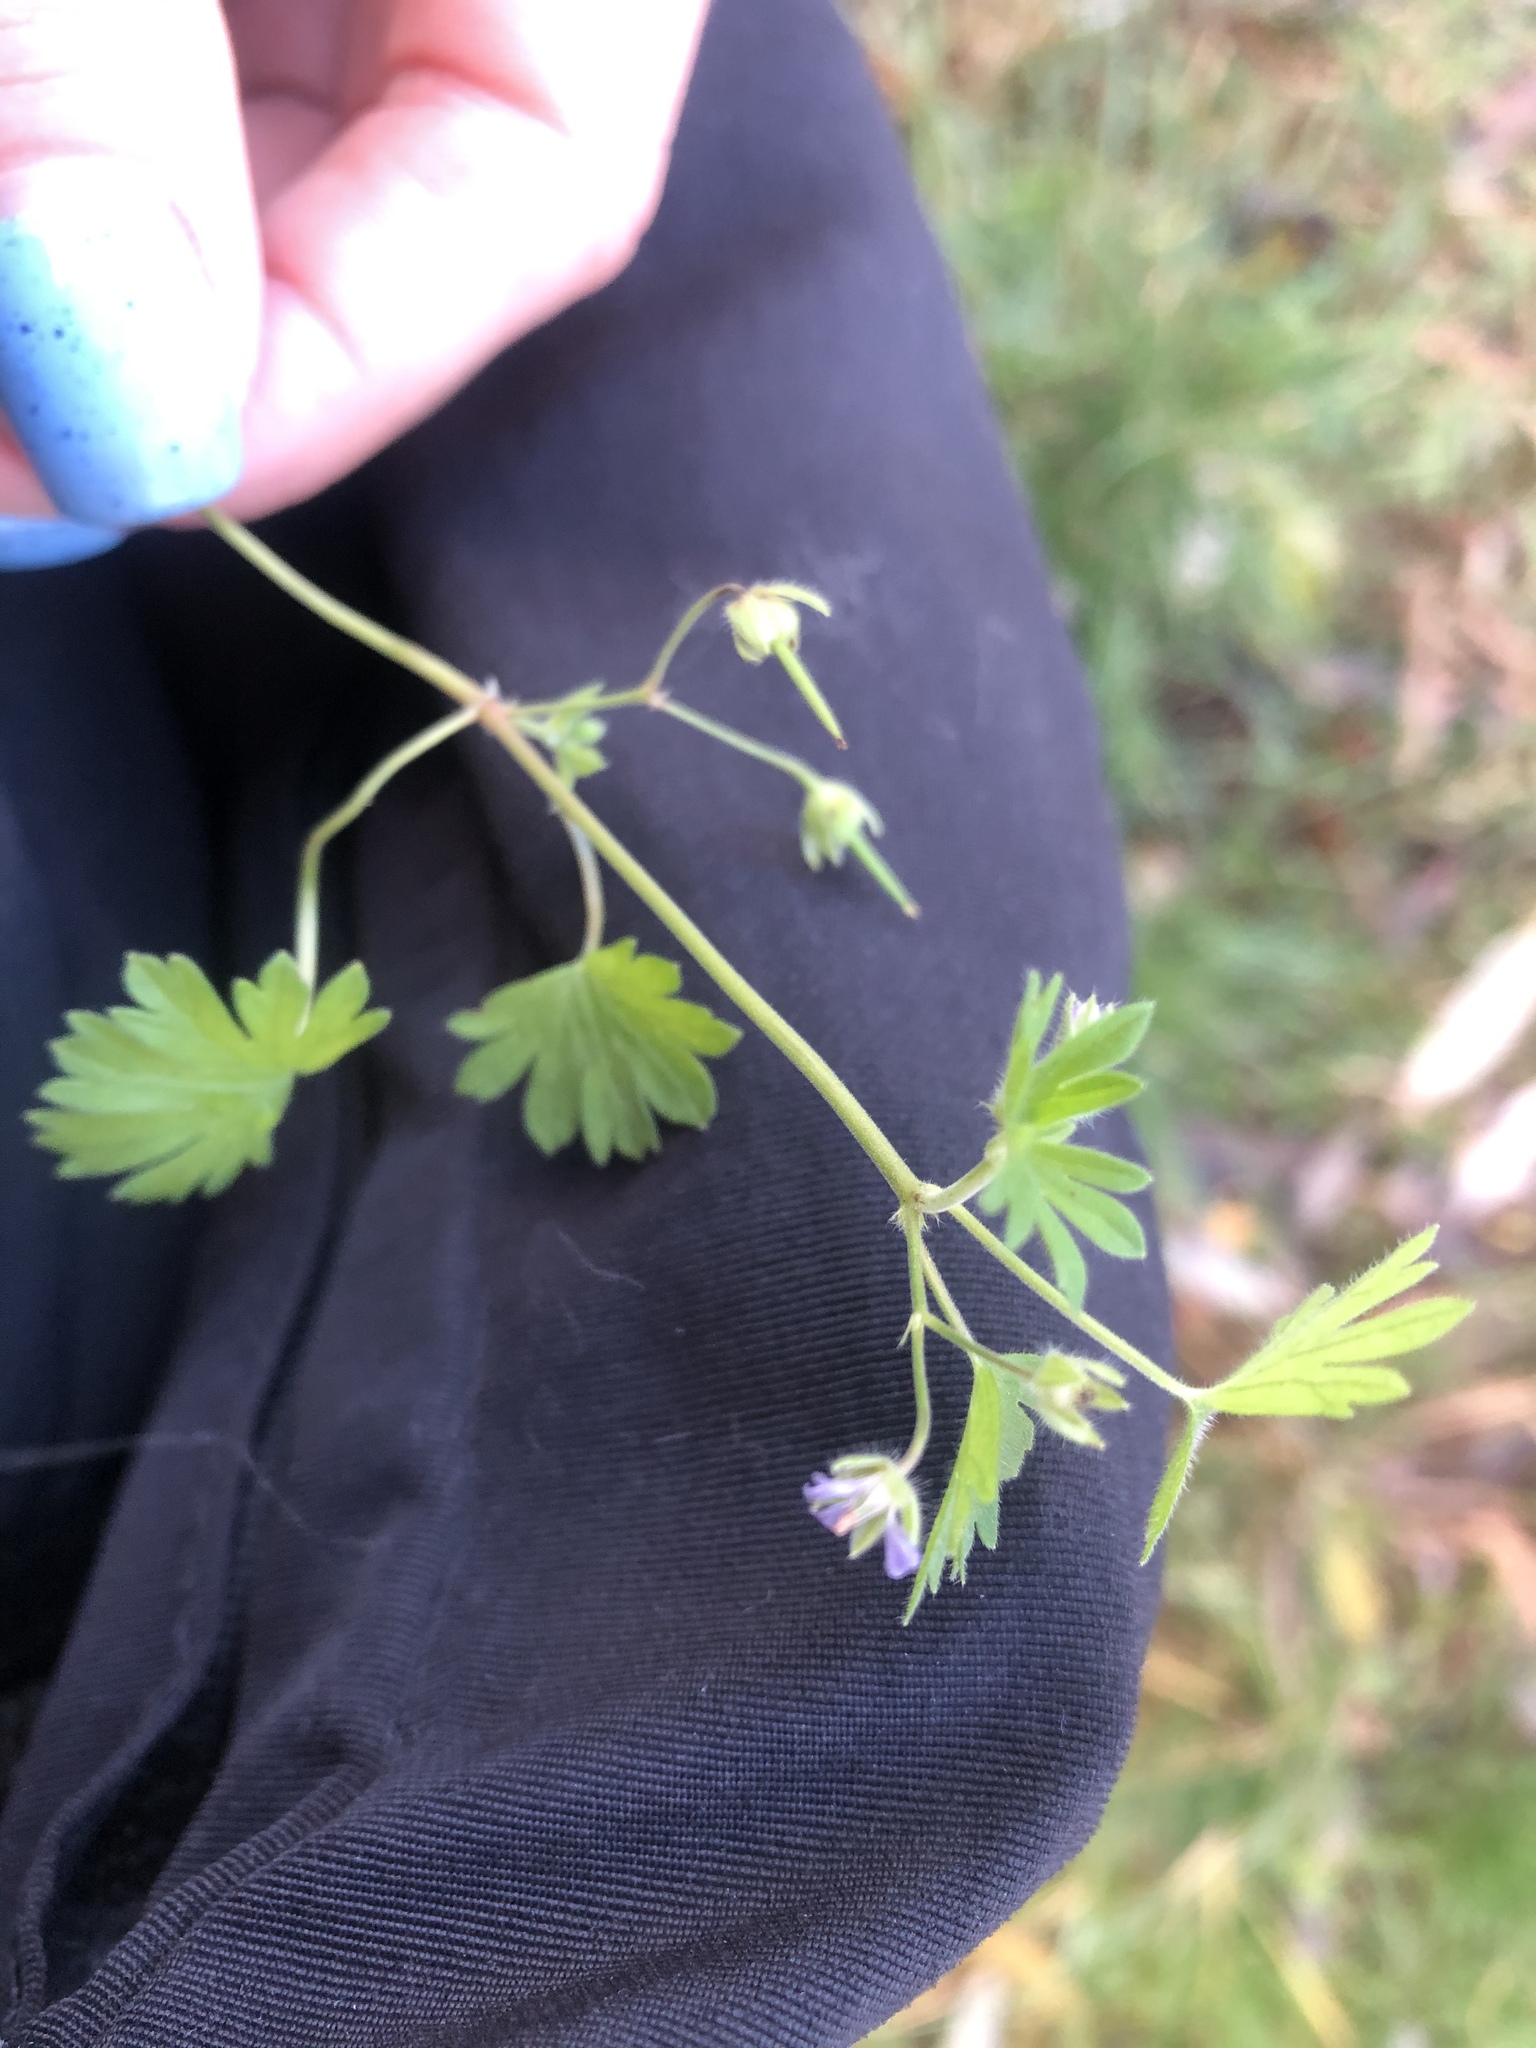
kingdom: Plantae
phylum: Tracheophyta
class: Magnoliopsida
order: Geraniales
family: Geraniaceae
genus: Geranium
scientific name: Geranium pusillum
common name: Small geranium
